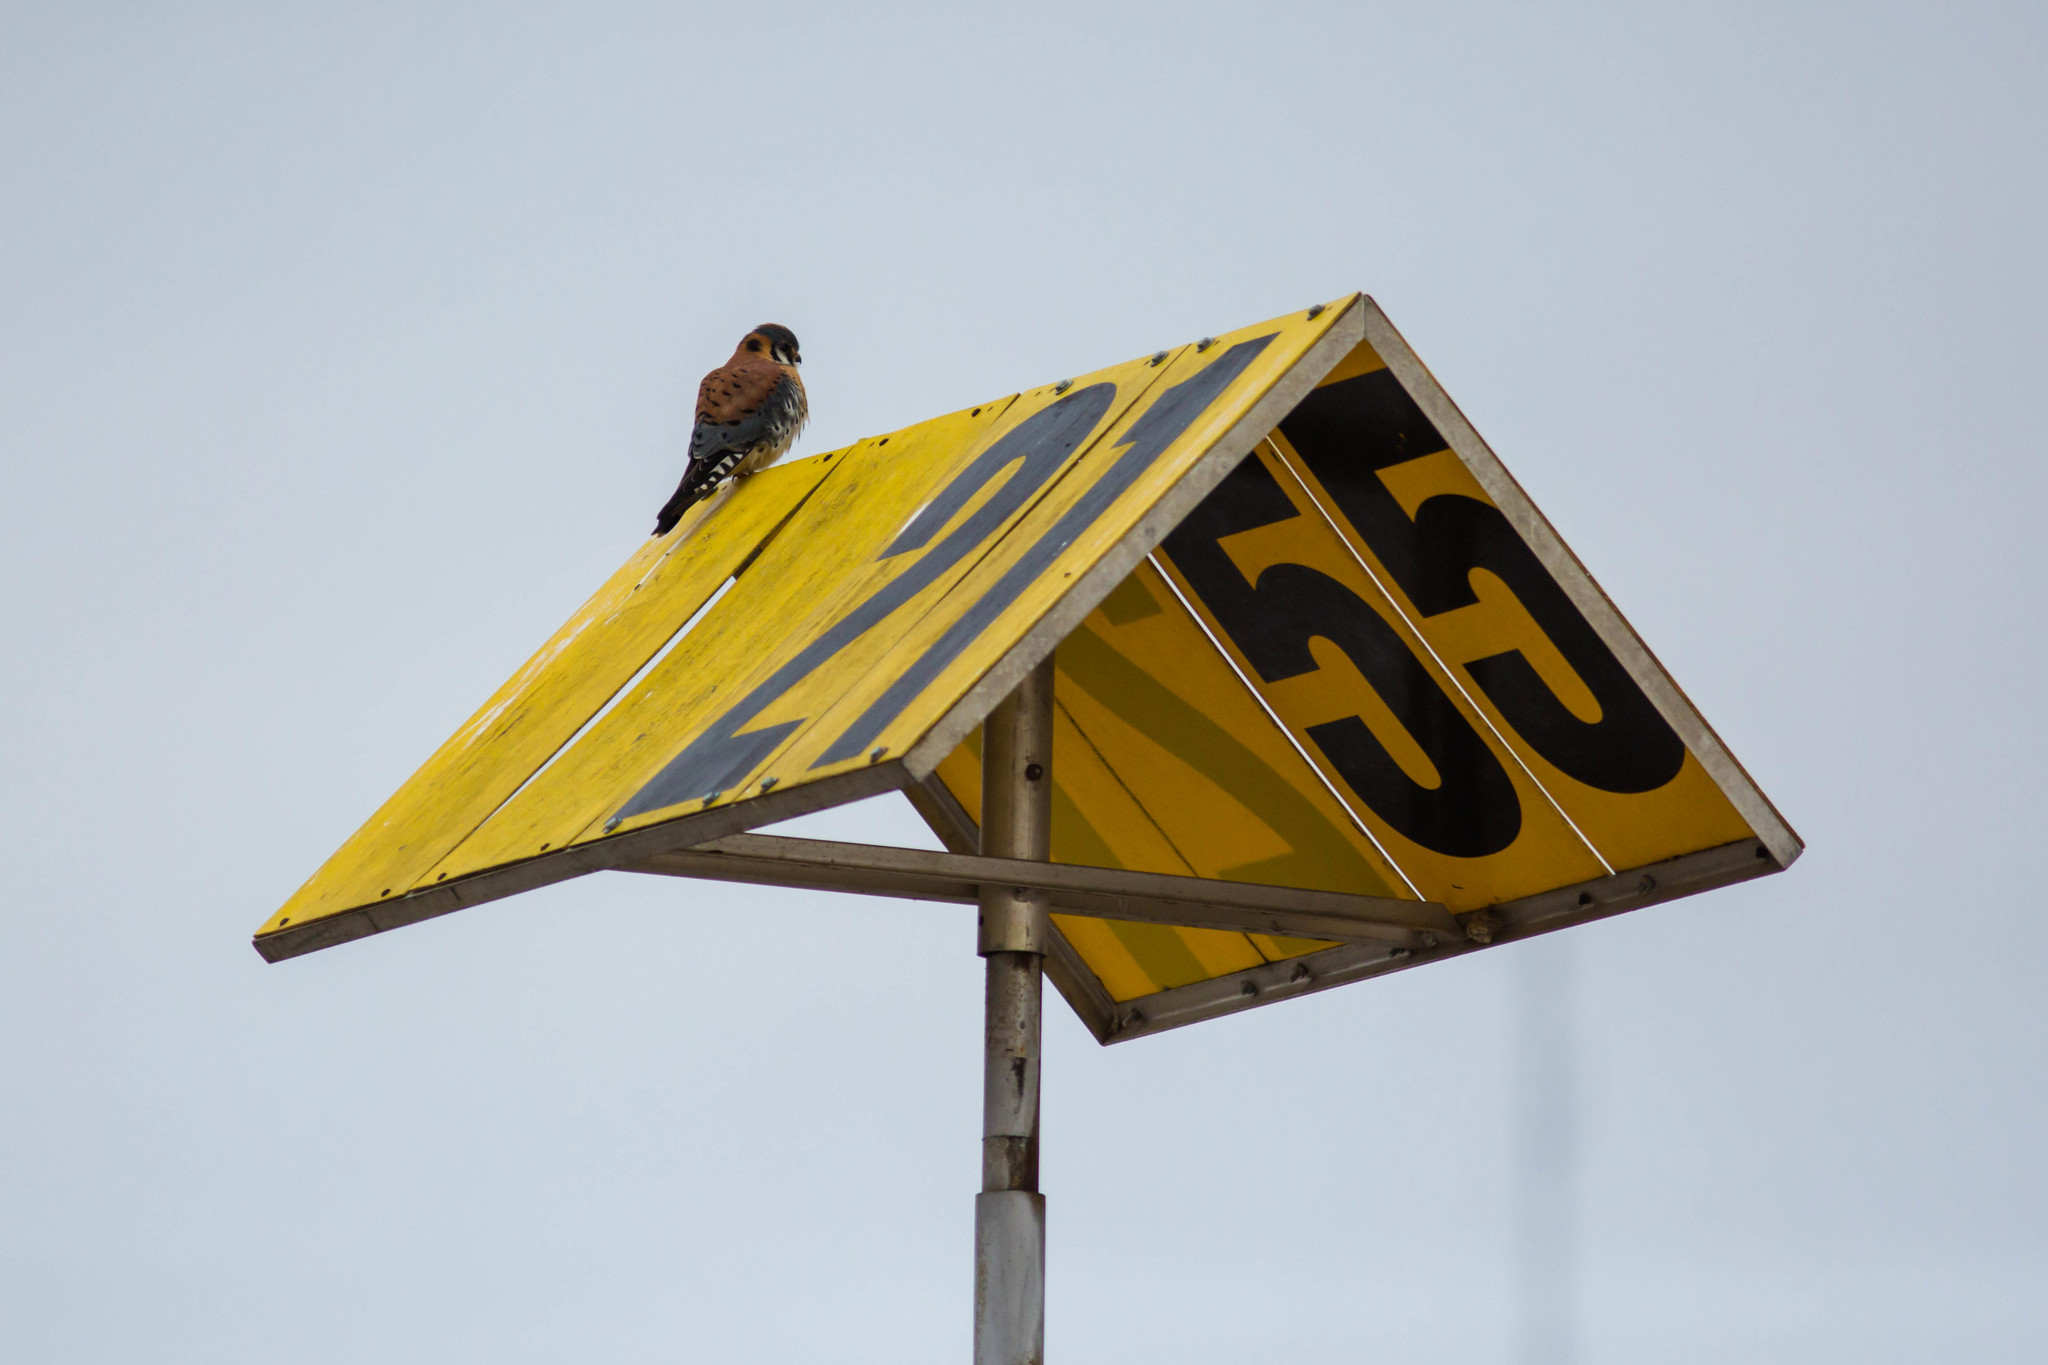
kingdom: Animalia
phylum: Chordata
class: Aves
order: Falconiformes
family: Falconidae
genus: Falco
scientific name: Falco sparverius
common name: American kestrel
